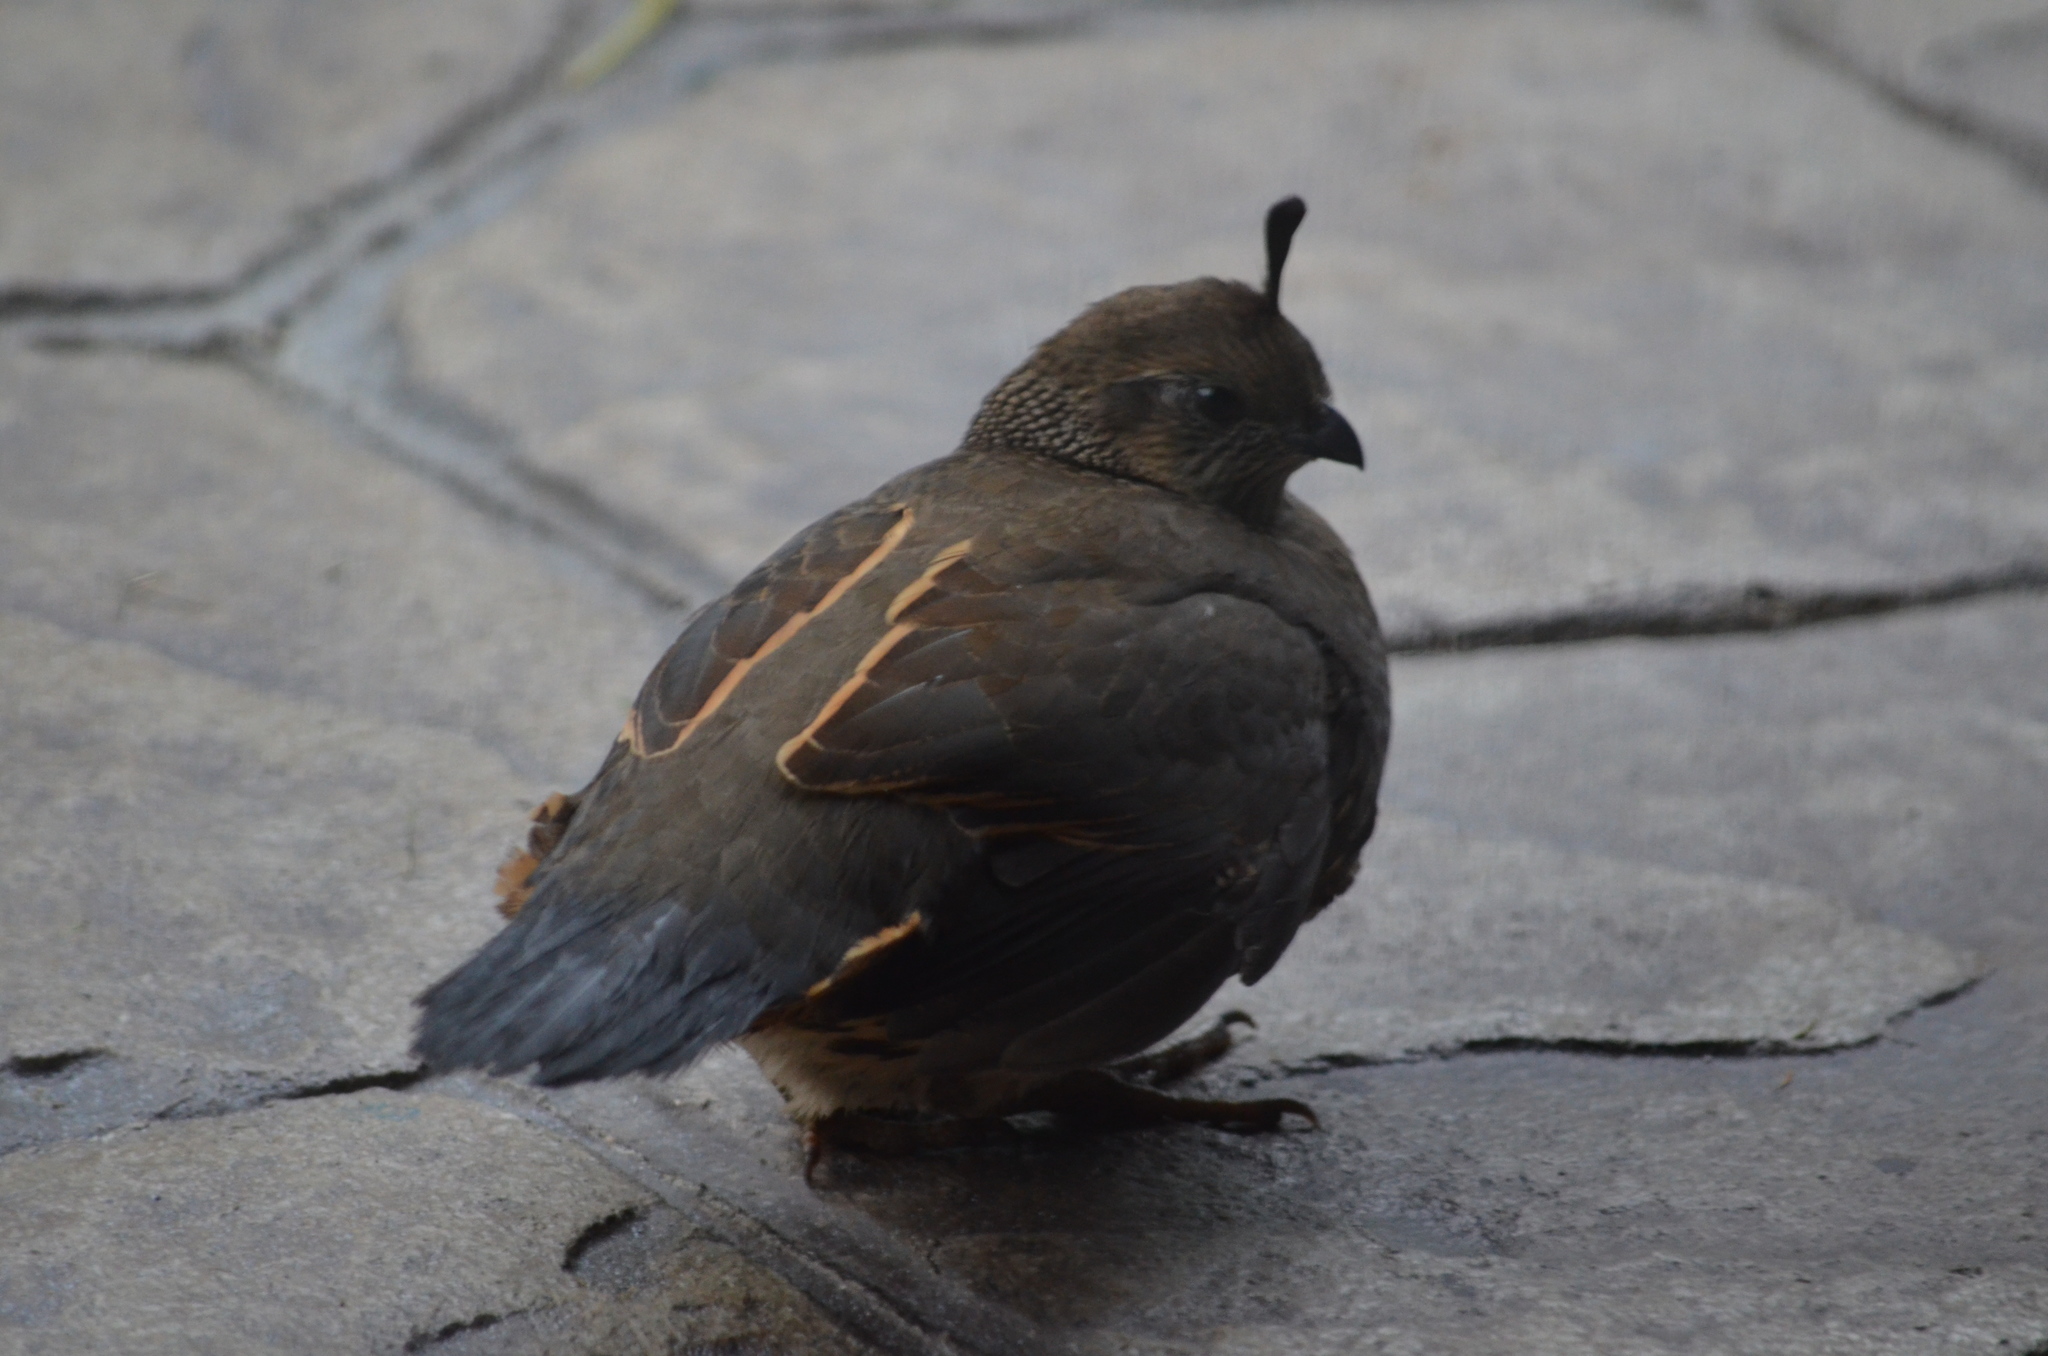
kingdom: Animalia
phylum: Chordata
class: Aves
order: Galliformes
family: Odontophoridae
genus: Callipepla
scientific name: Callipepla californica
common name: California quail
